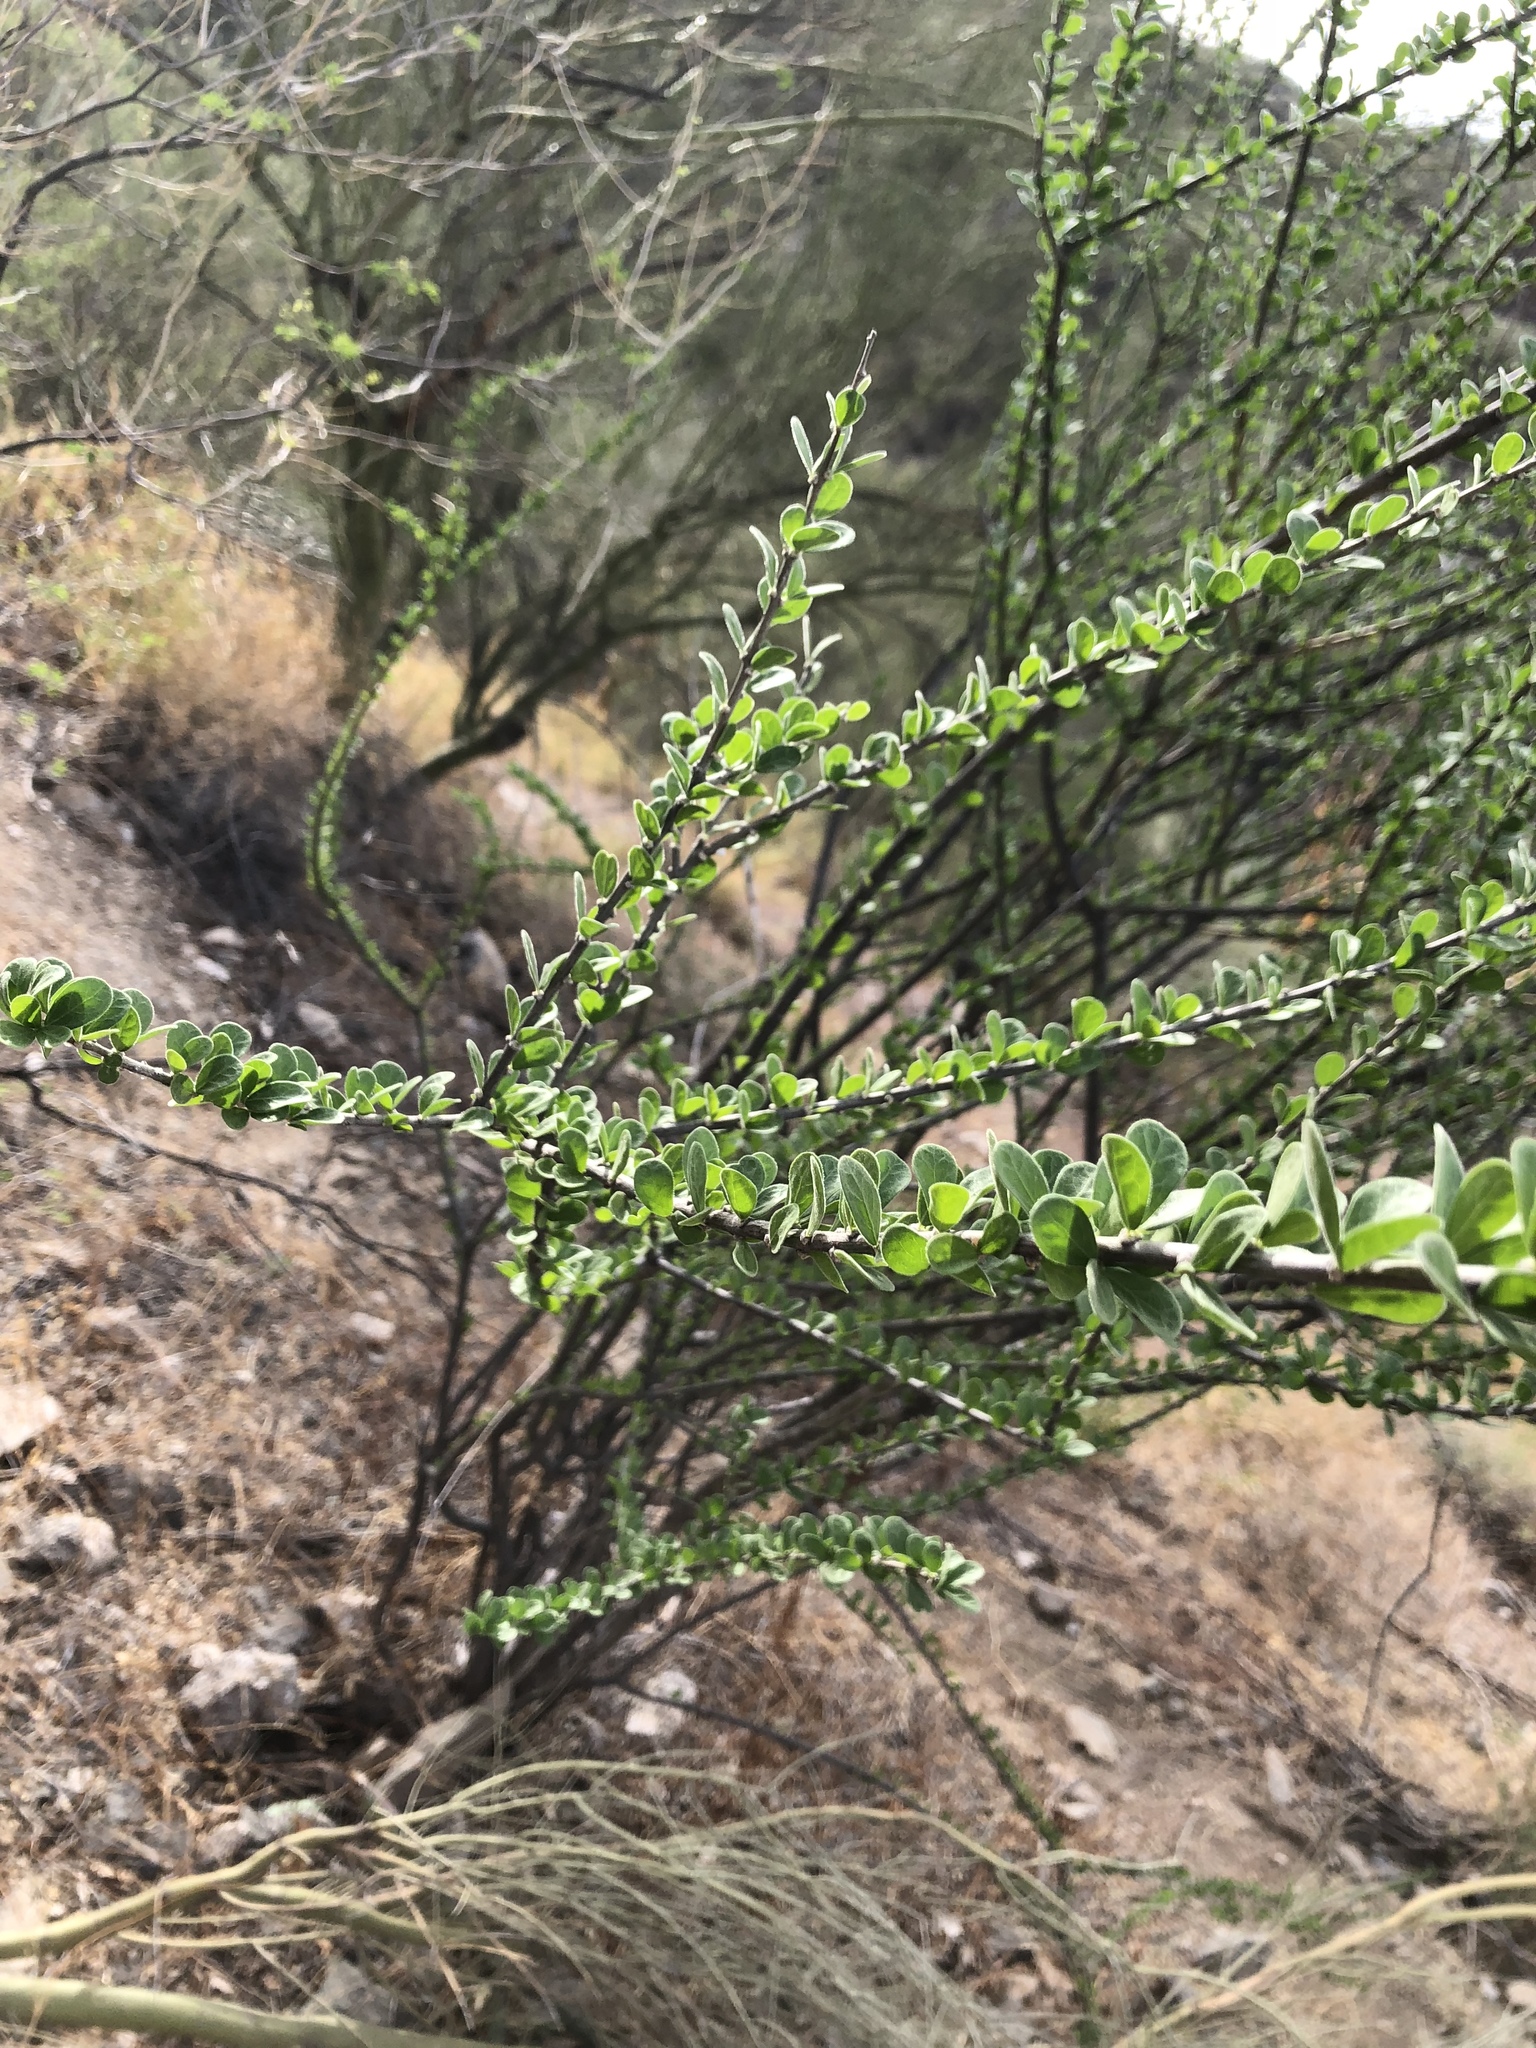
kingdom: Plantae
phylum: Tracheophyta
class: Magnoliopsida
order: Malpighiales
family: Euphorbiaceae
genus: Adelia
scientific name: Adelia obovata
